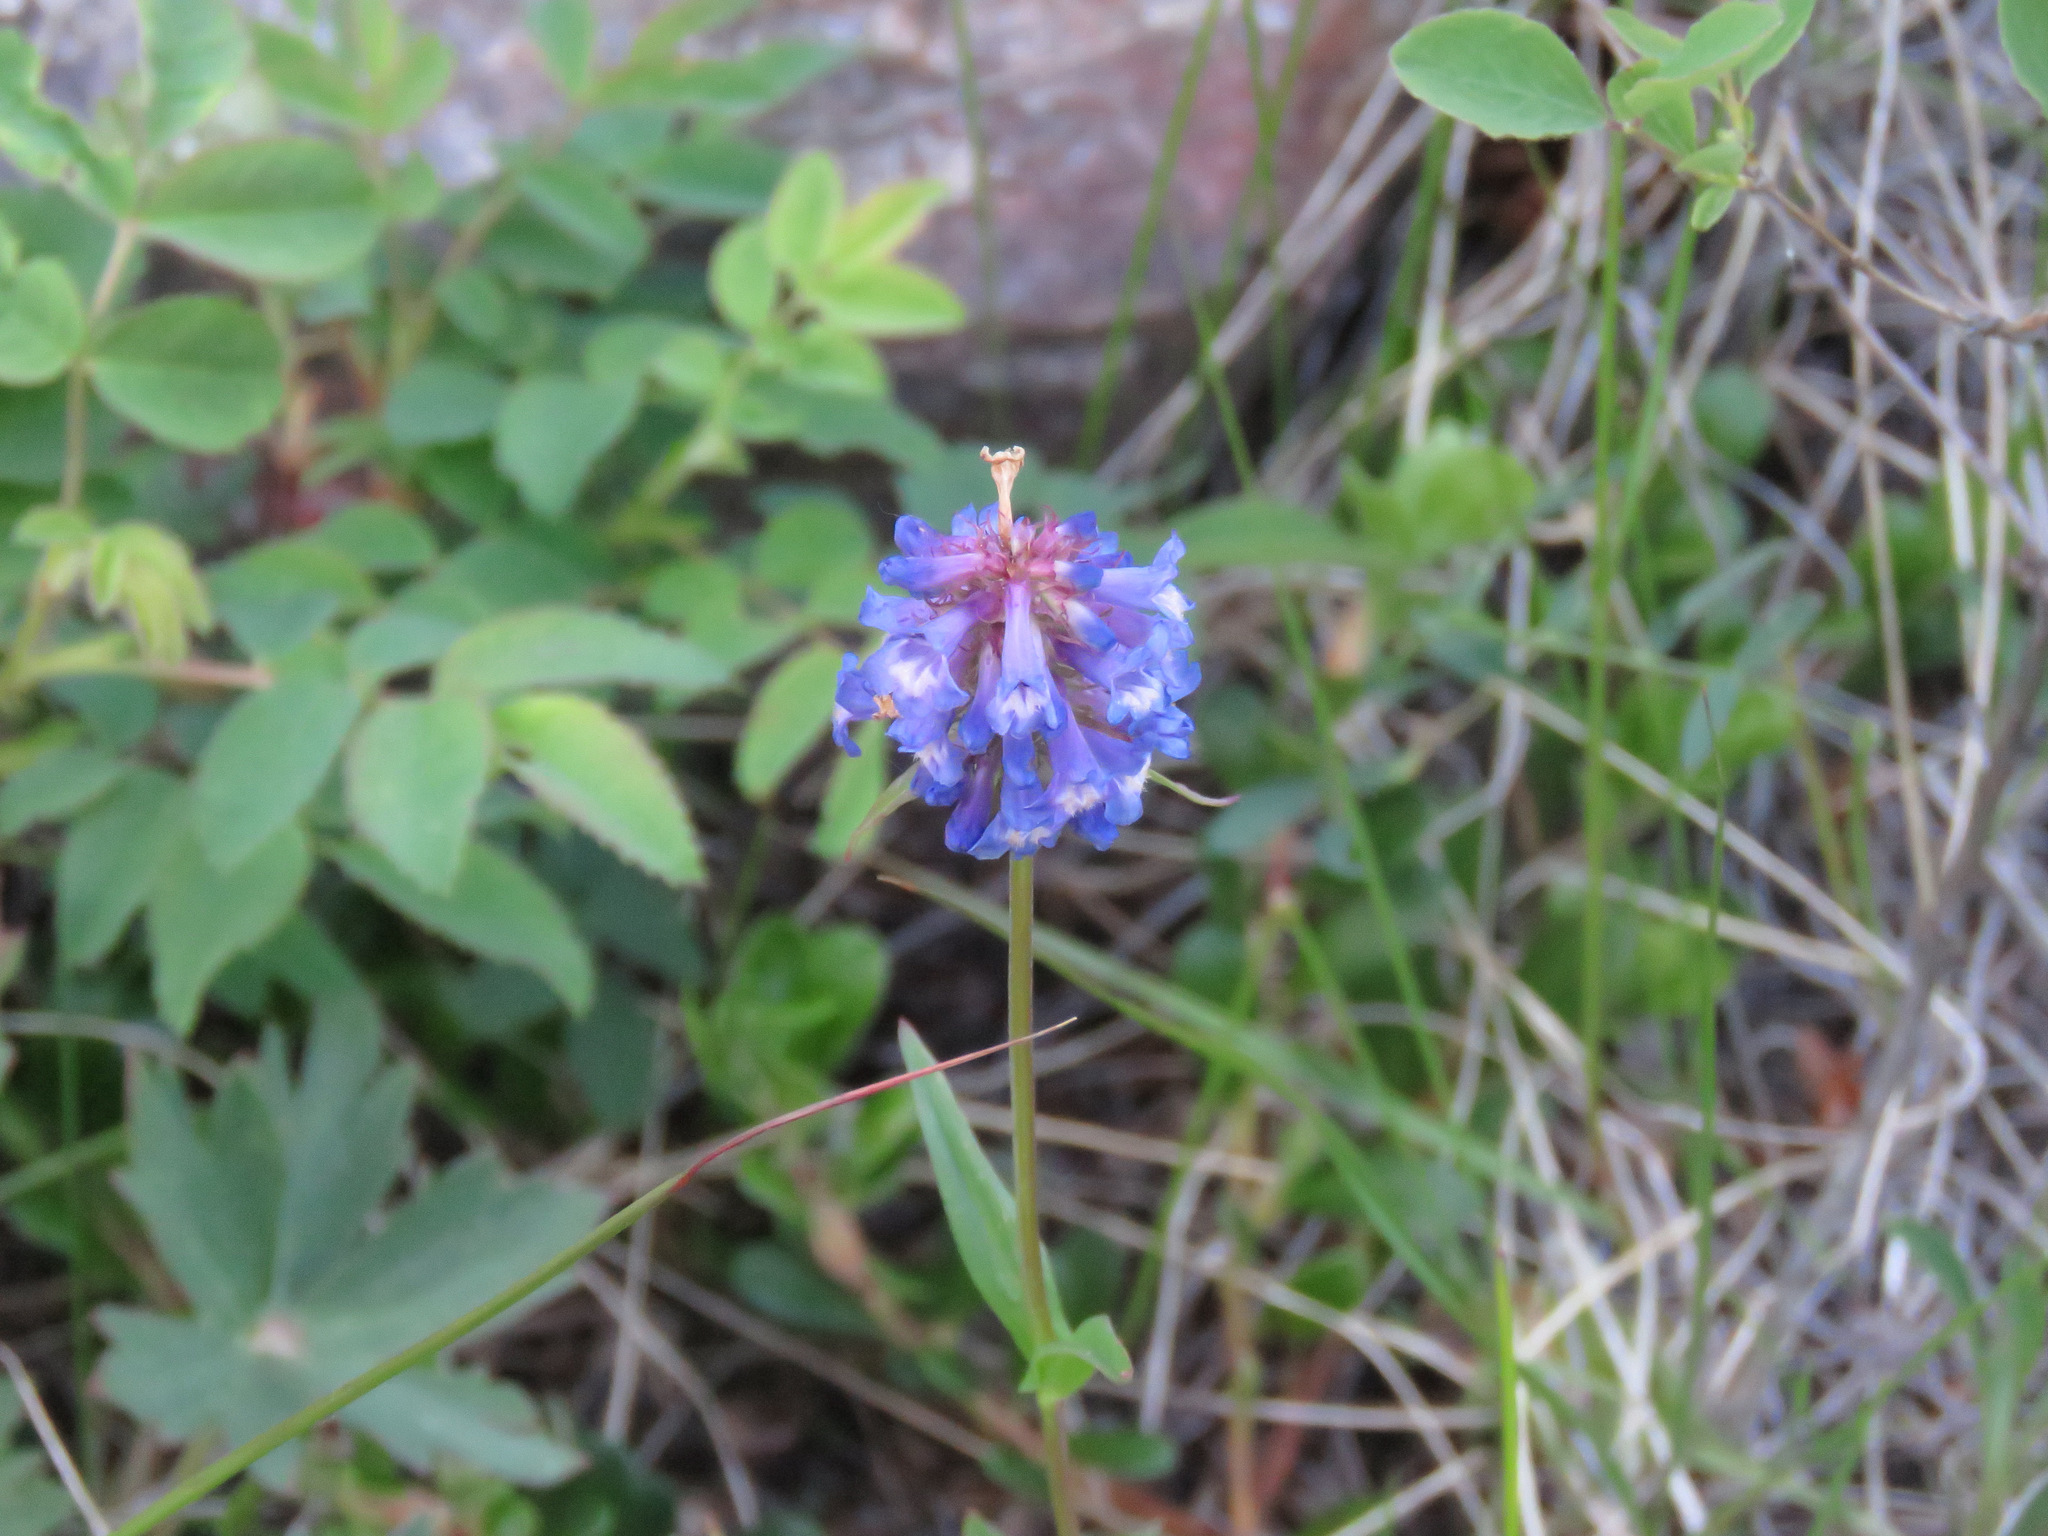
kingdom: Plantae
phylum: Tracheophyta
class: Magnoliopsida
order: Lamiales
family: Plantaginaceae
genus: Penstemon
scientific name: Penstemon procerus
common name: Small-flower penstemon
